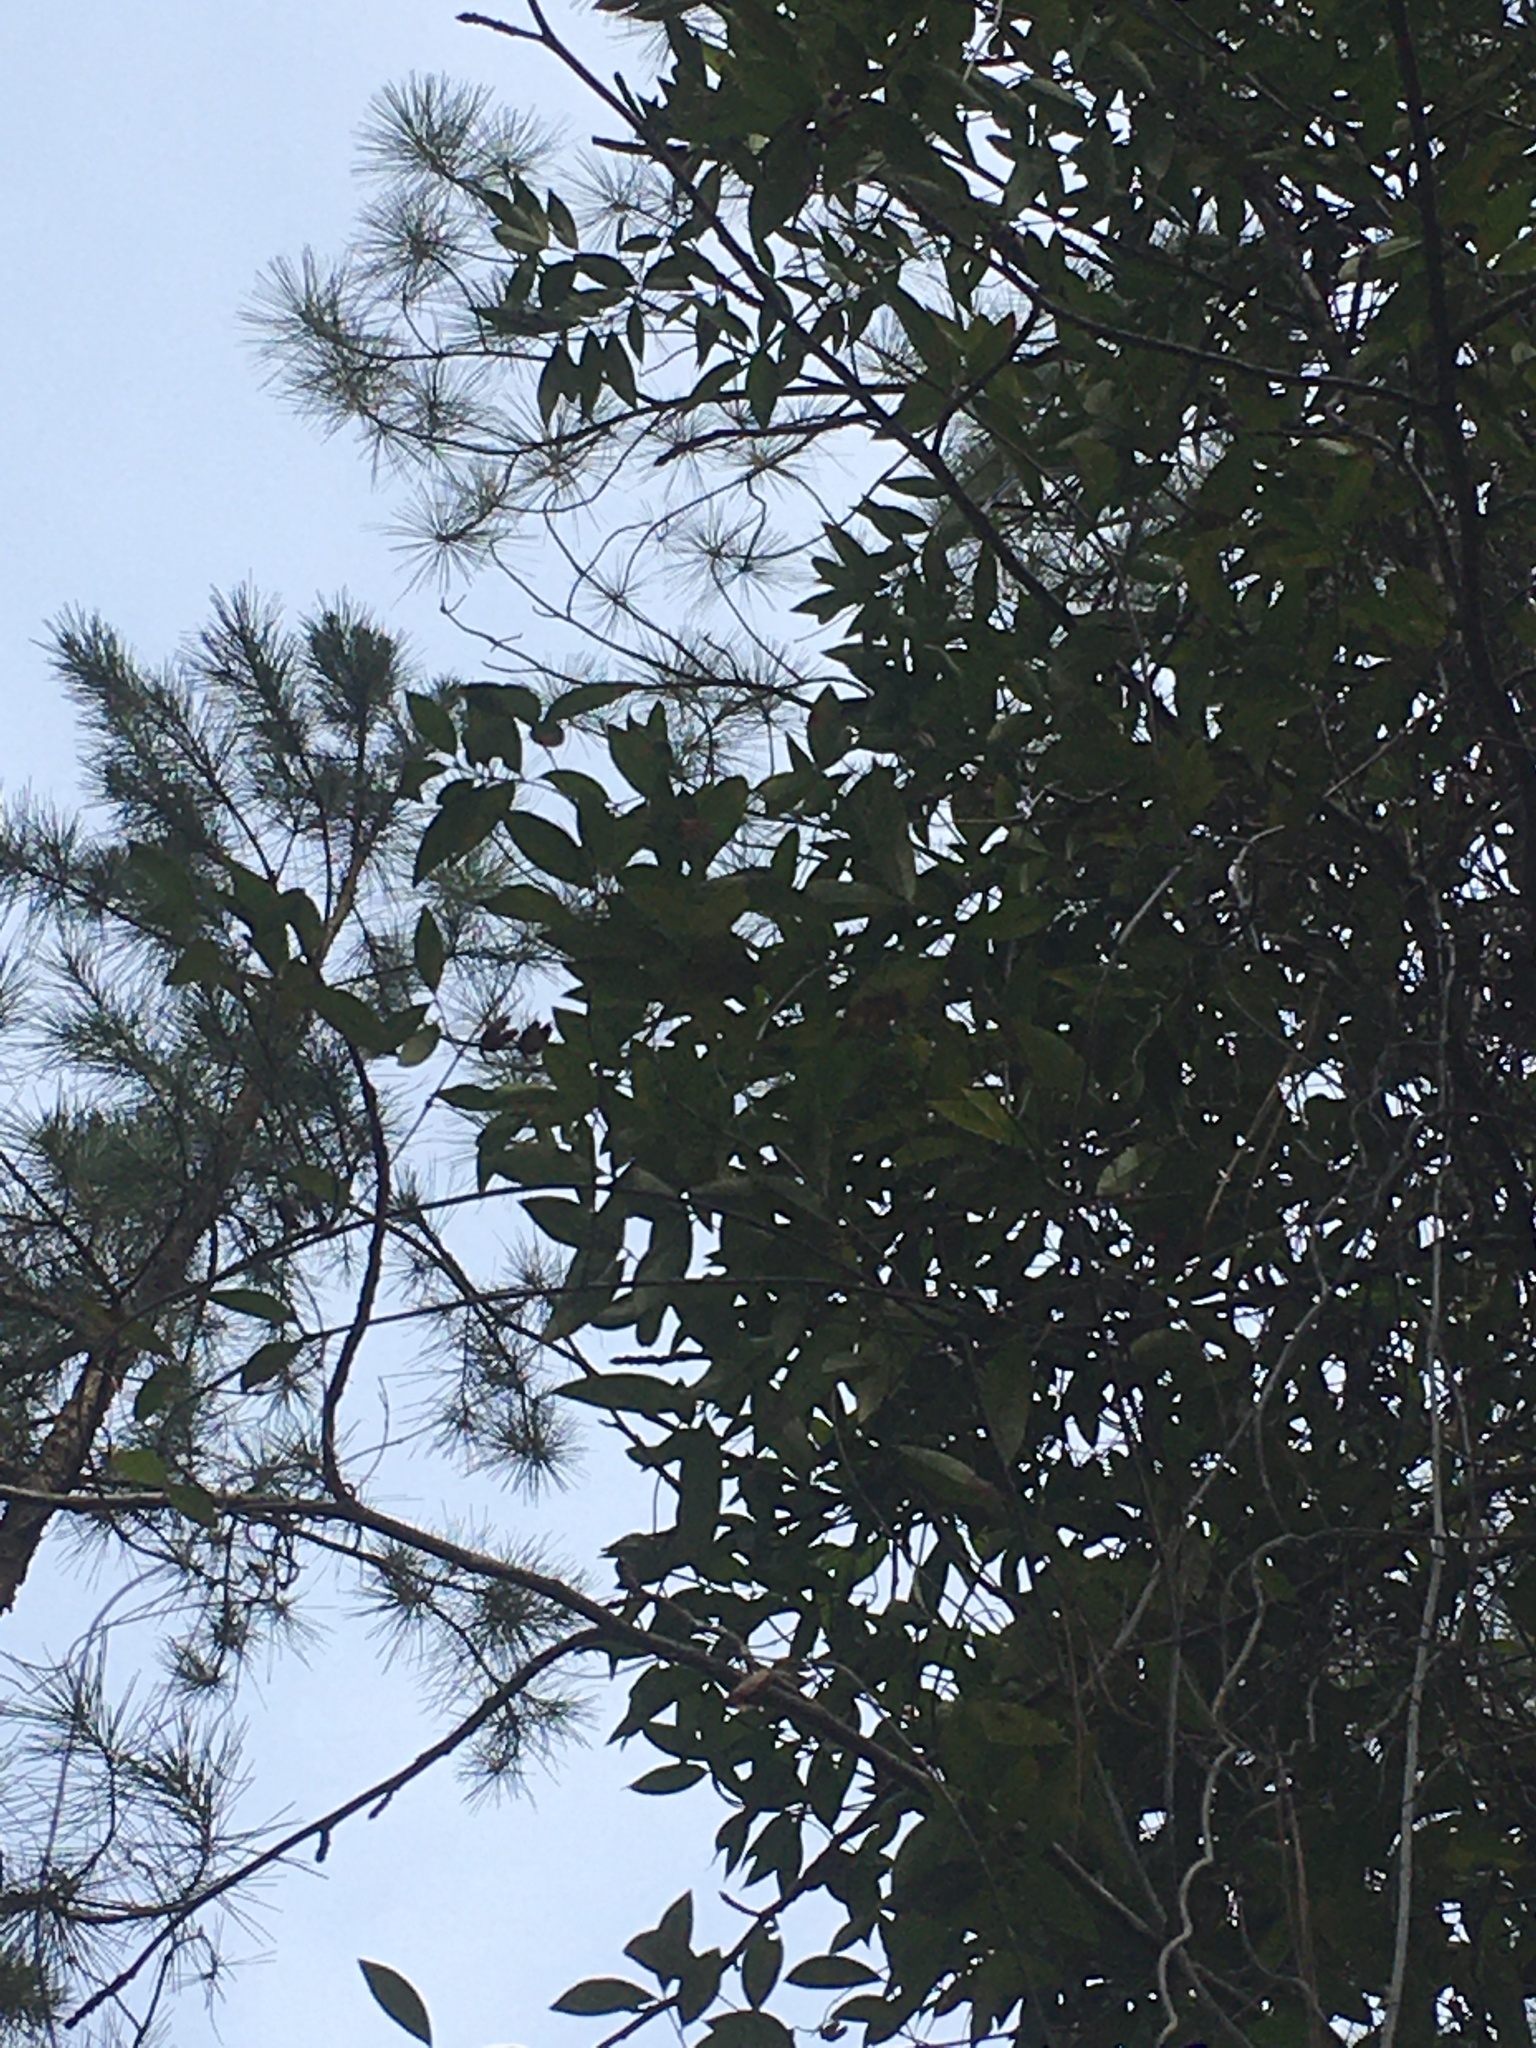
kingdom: Plantae
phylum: Tracheophyta
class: Magnoliopsida
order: Gentianales
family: Gelsemiaceae
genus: Gelsemium
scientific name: Gelsemium sempervirens
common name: Carolina-jasmine
